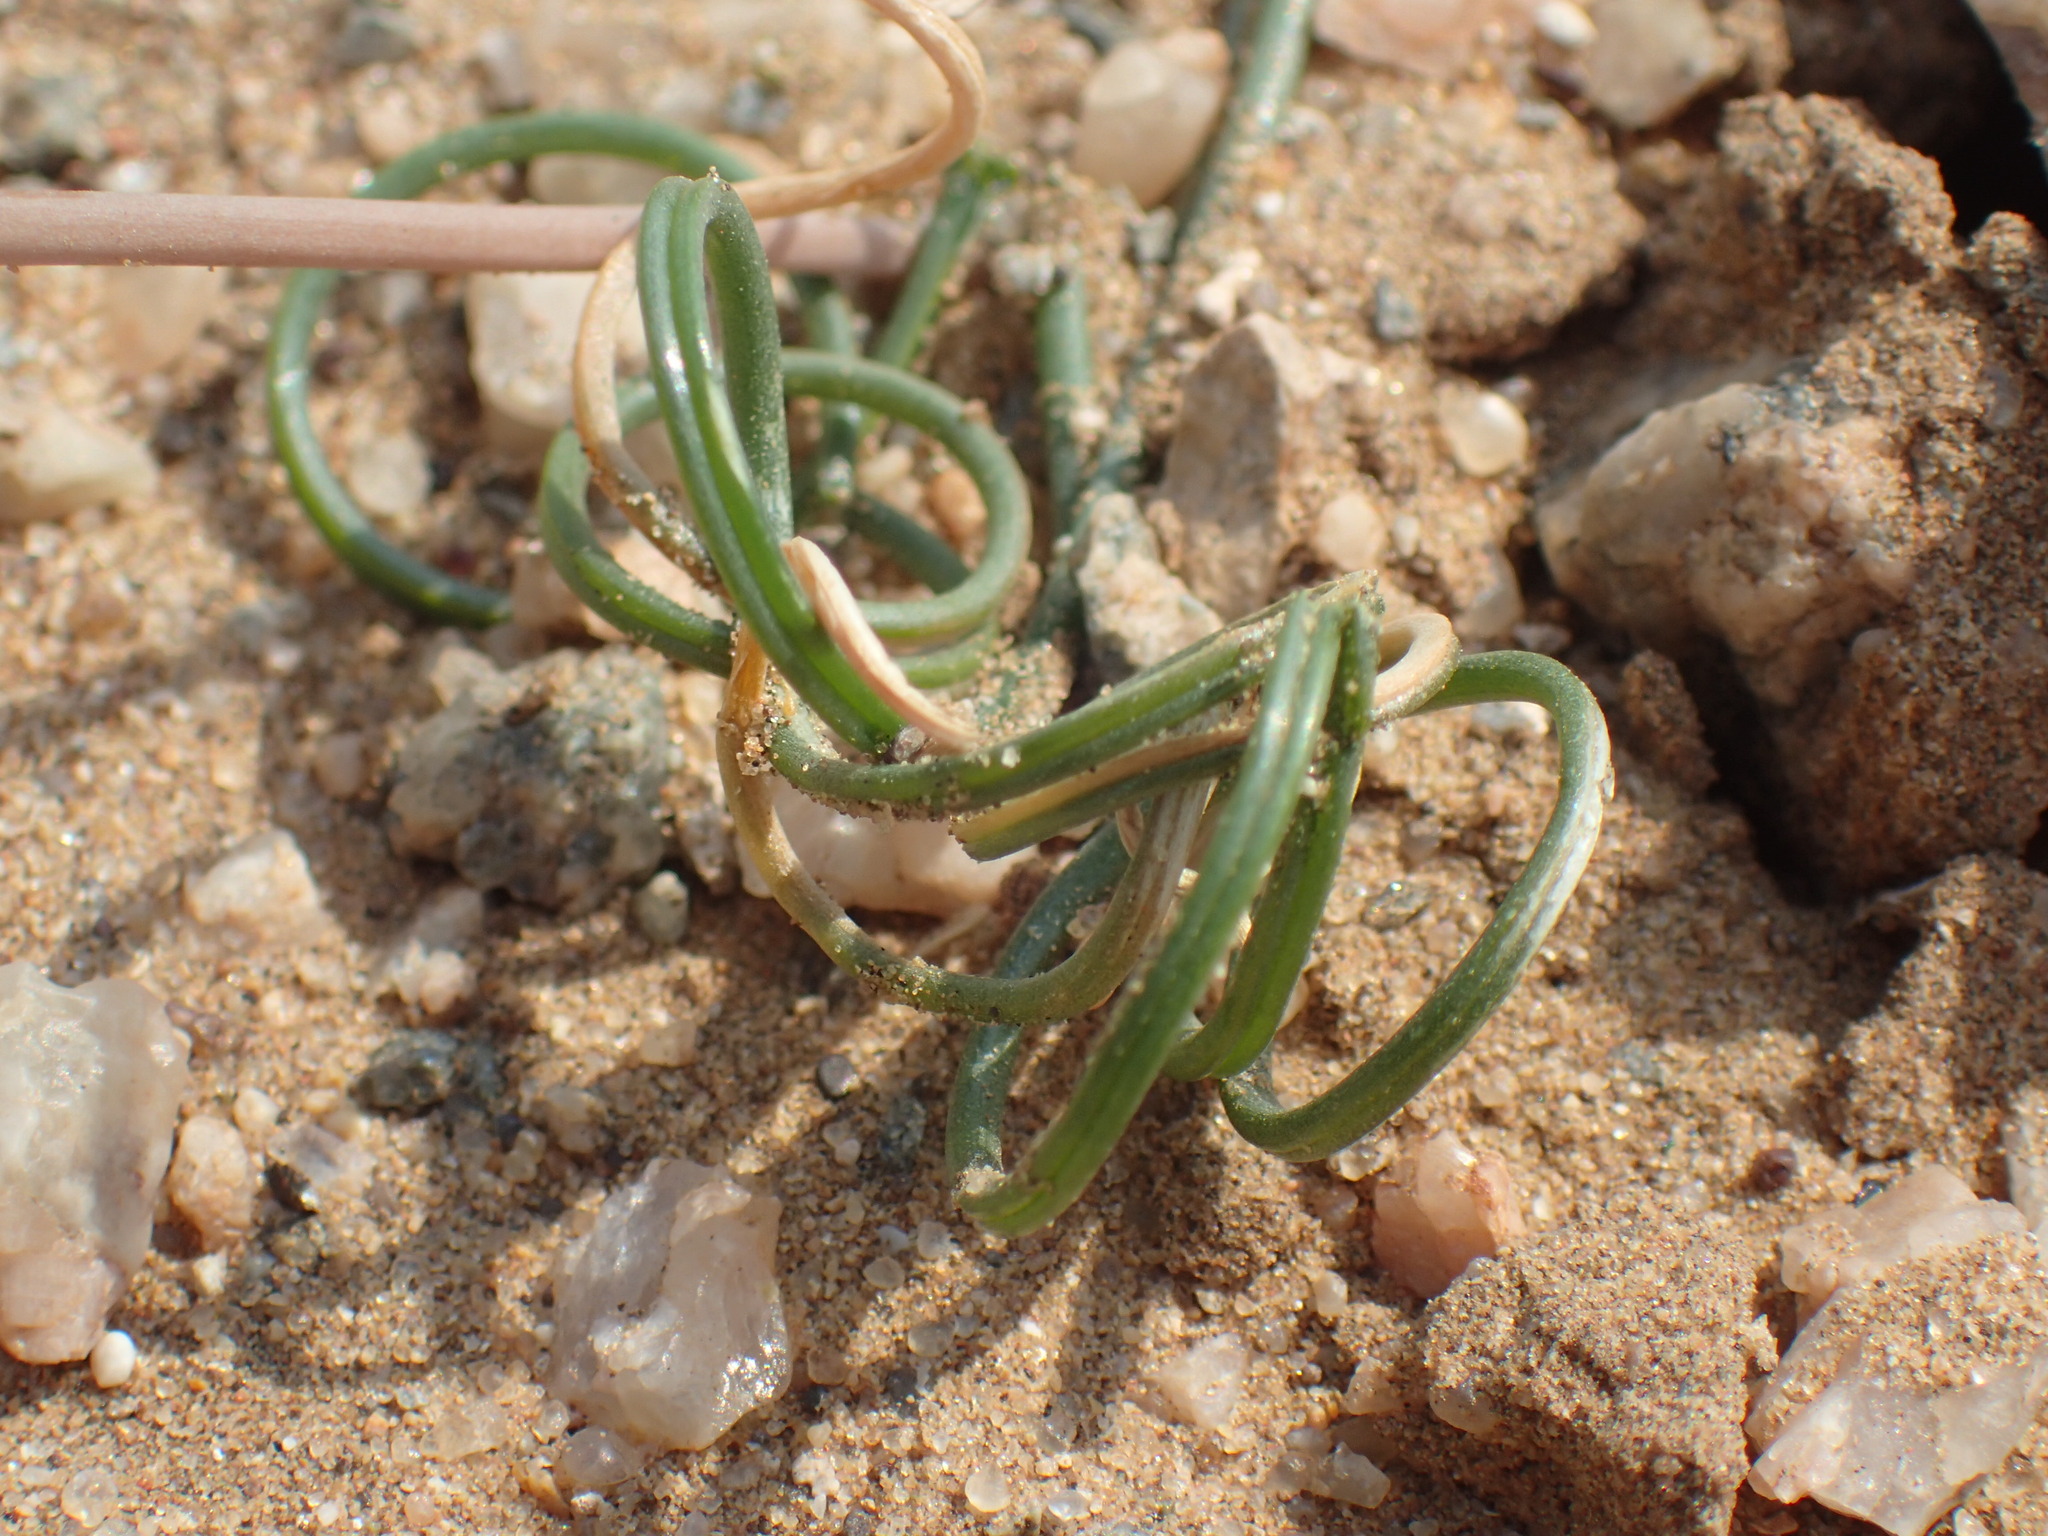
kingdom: Plantae
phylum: Tracheophyta
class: Liliopsida
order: Asparagales
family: Asparagaceae
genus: Dipcadi
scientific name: Dipcadi brevifolium
